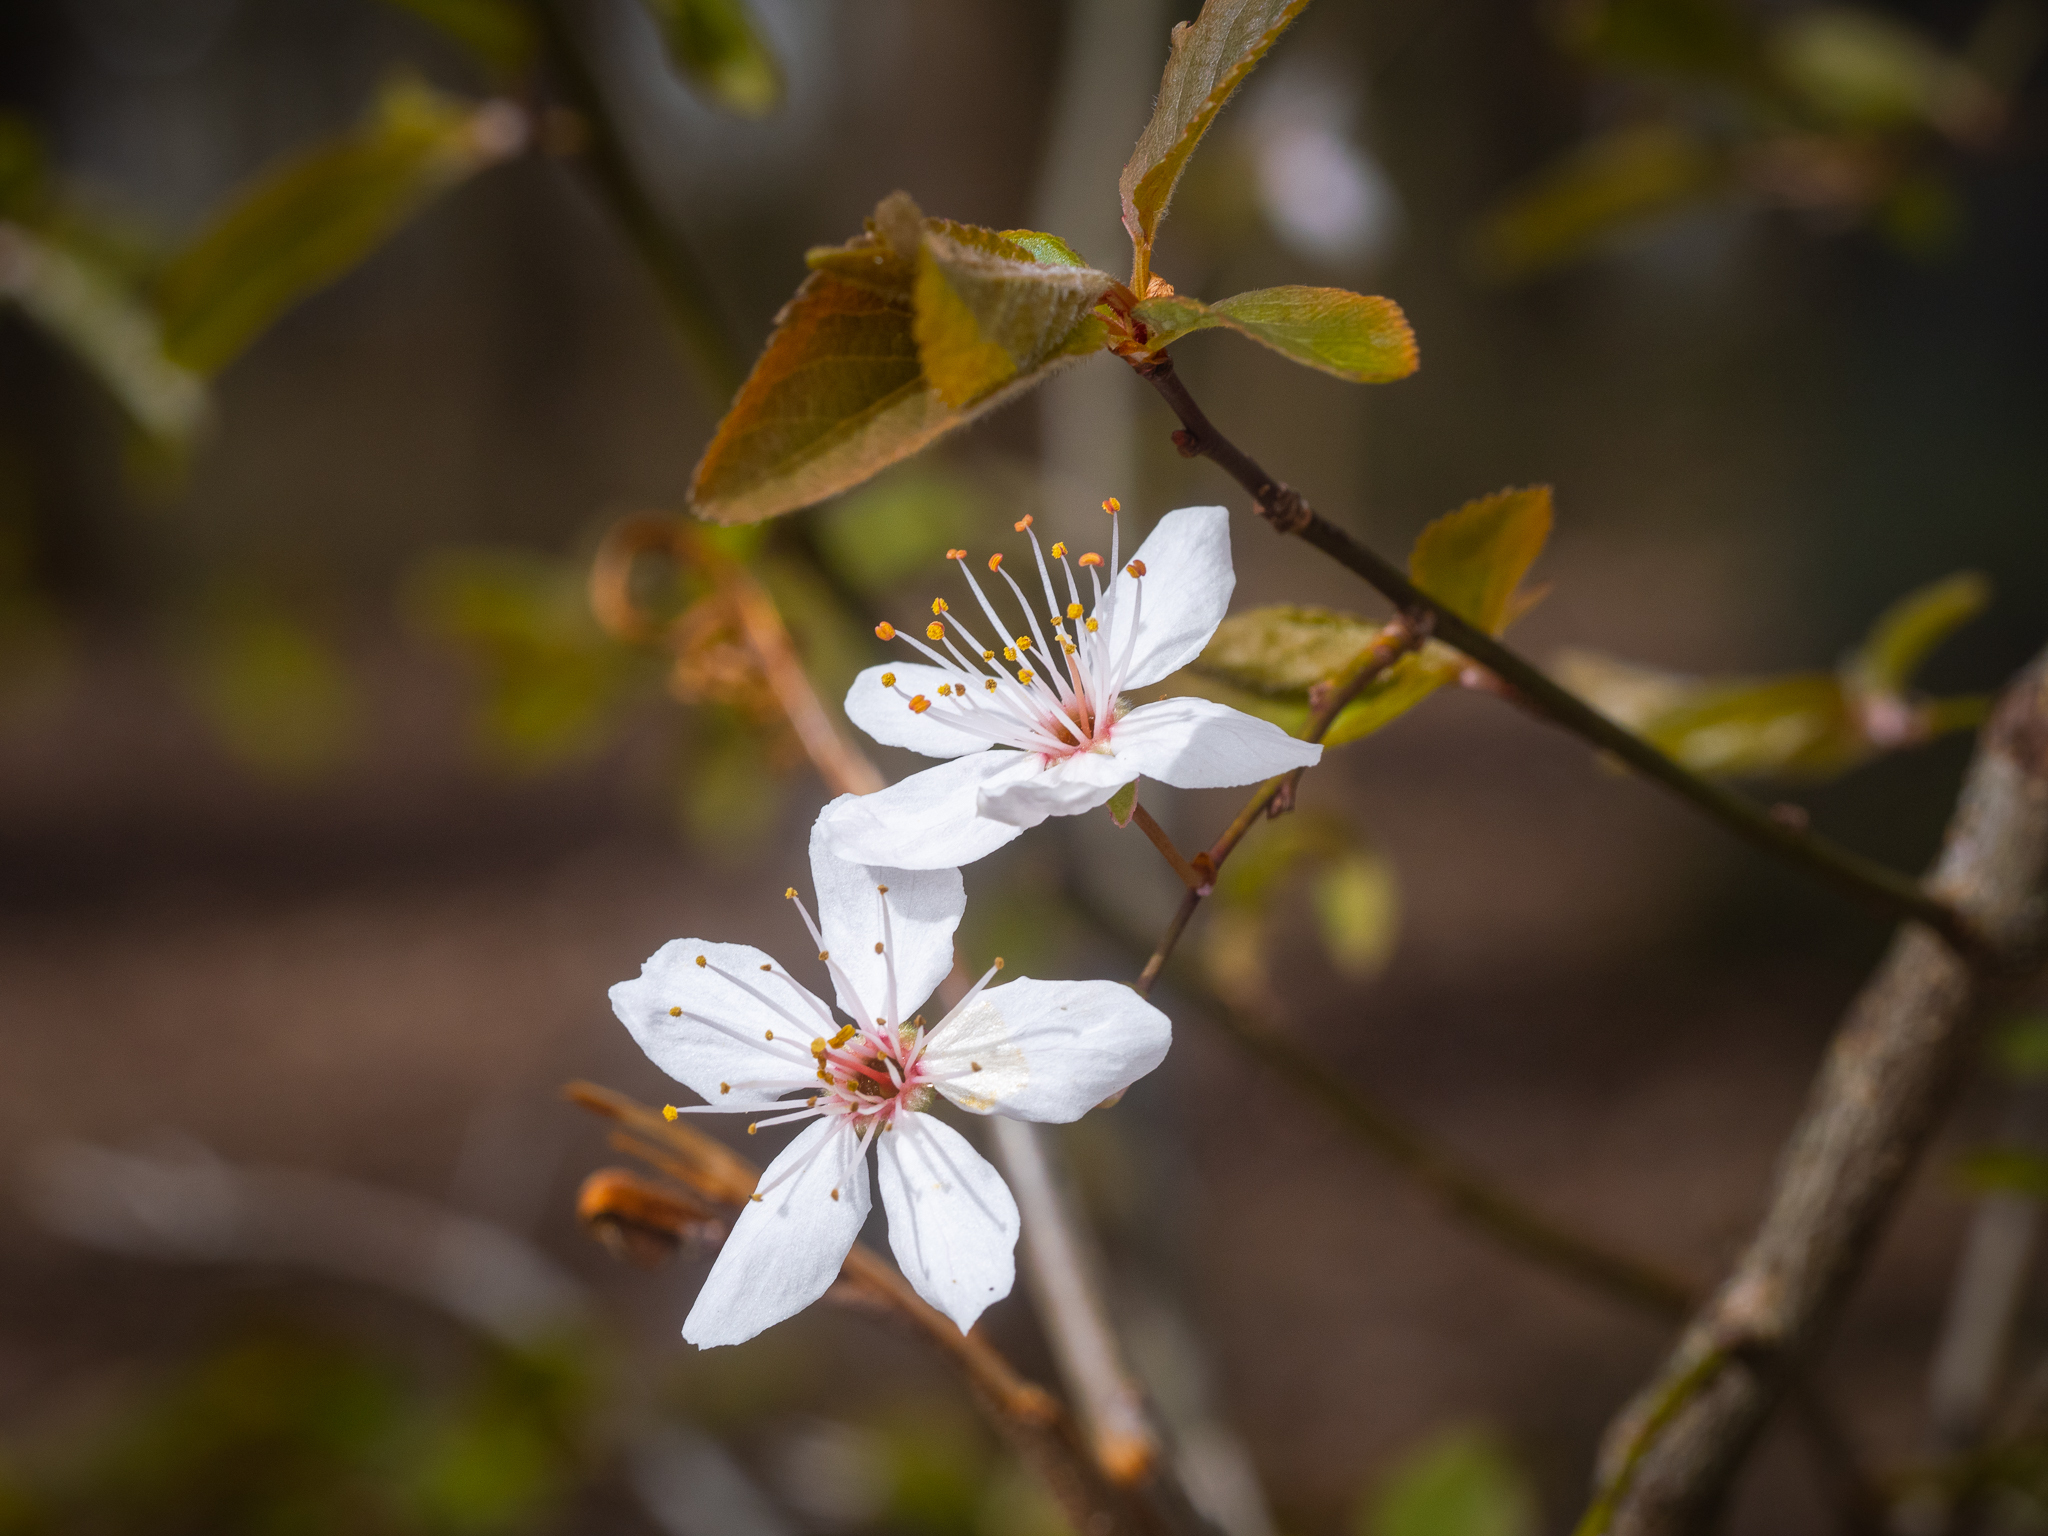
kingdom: Plantae
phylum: Tracheophyta
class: Magnoliopsida
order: Rosales
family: Rosaceae
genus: Prunus
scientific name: Prunus cerasifera
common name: Cherry plum
